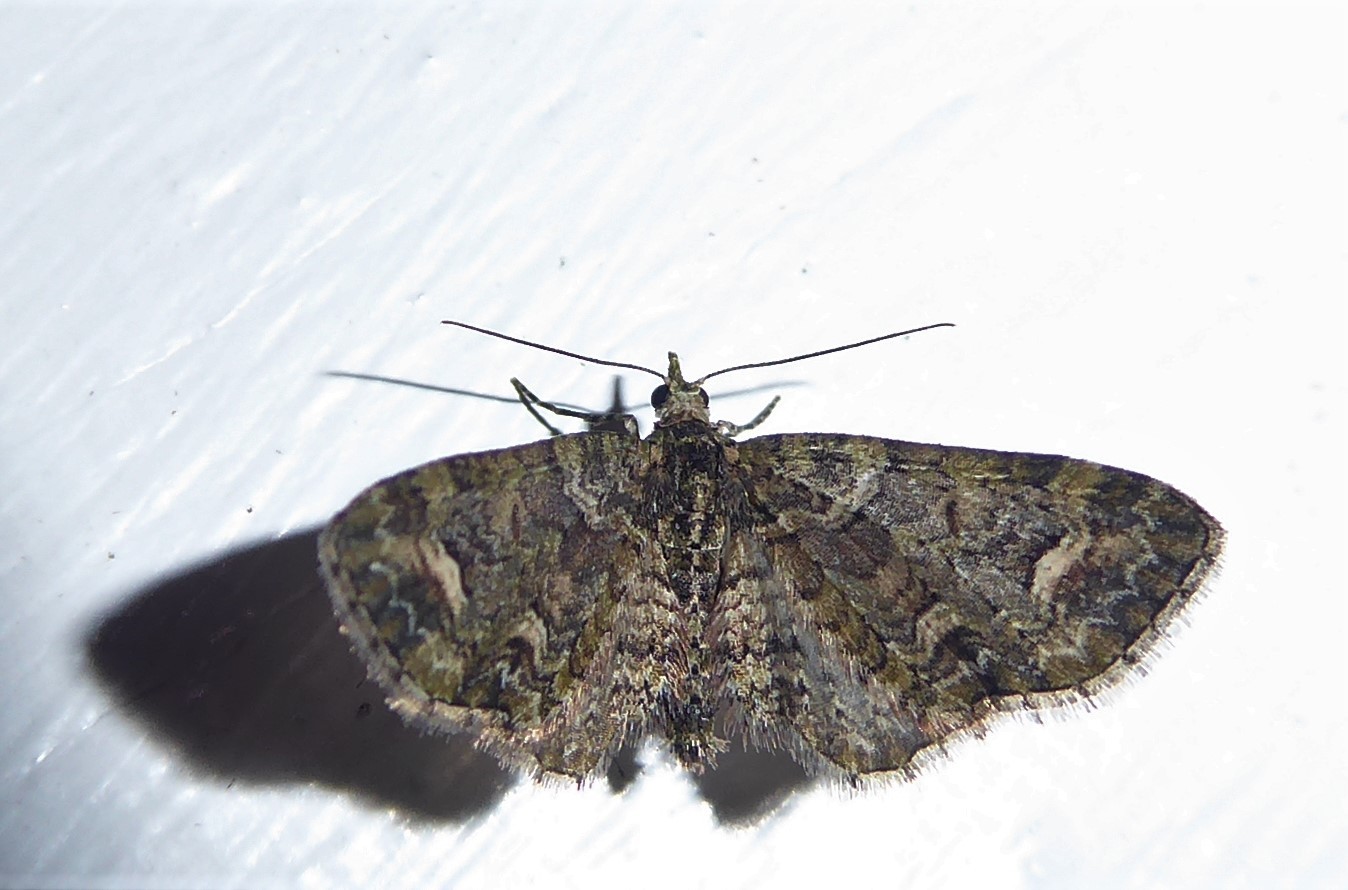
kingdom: Animalia
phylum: Arthropoda
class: Insecta
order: Lepidoptera
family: Geometridae
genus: Idaea
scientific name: Idaea mutanda
